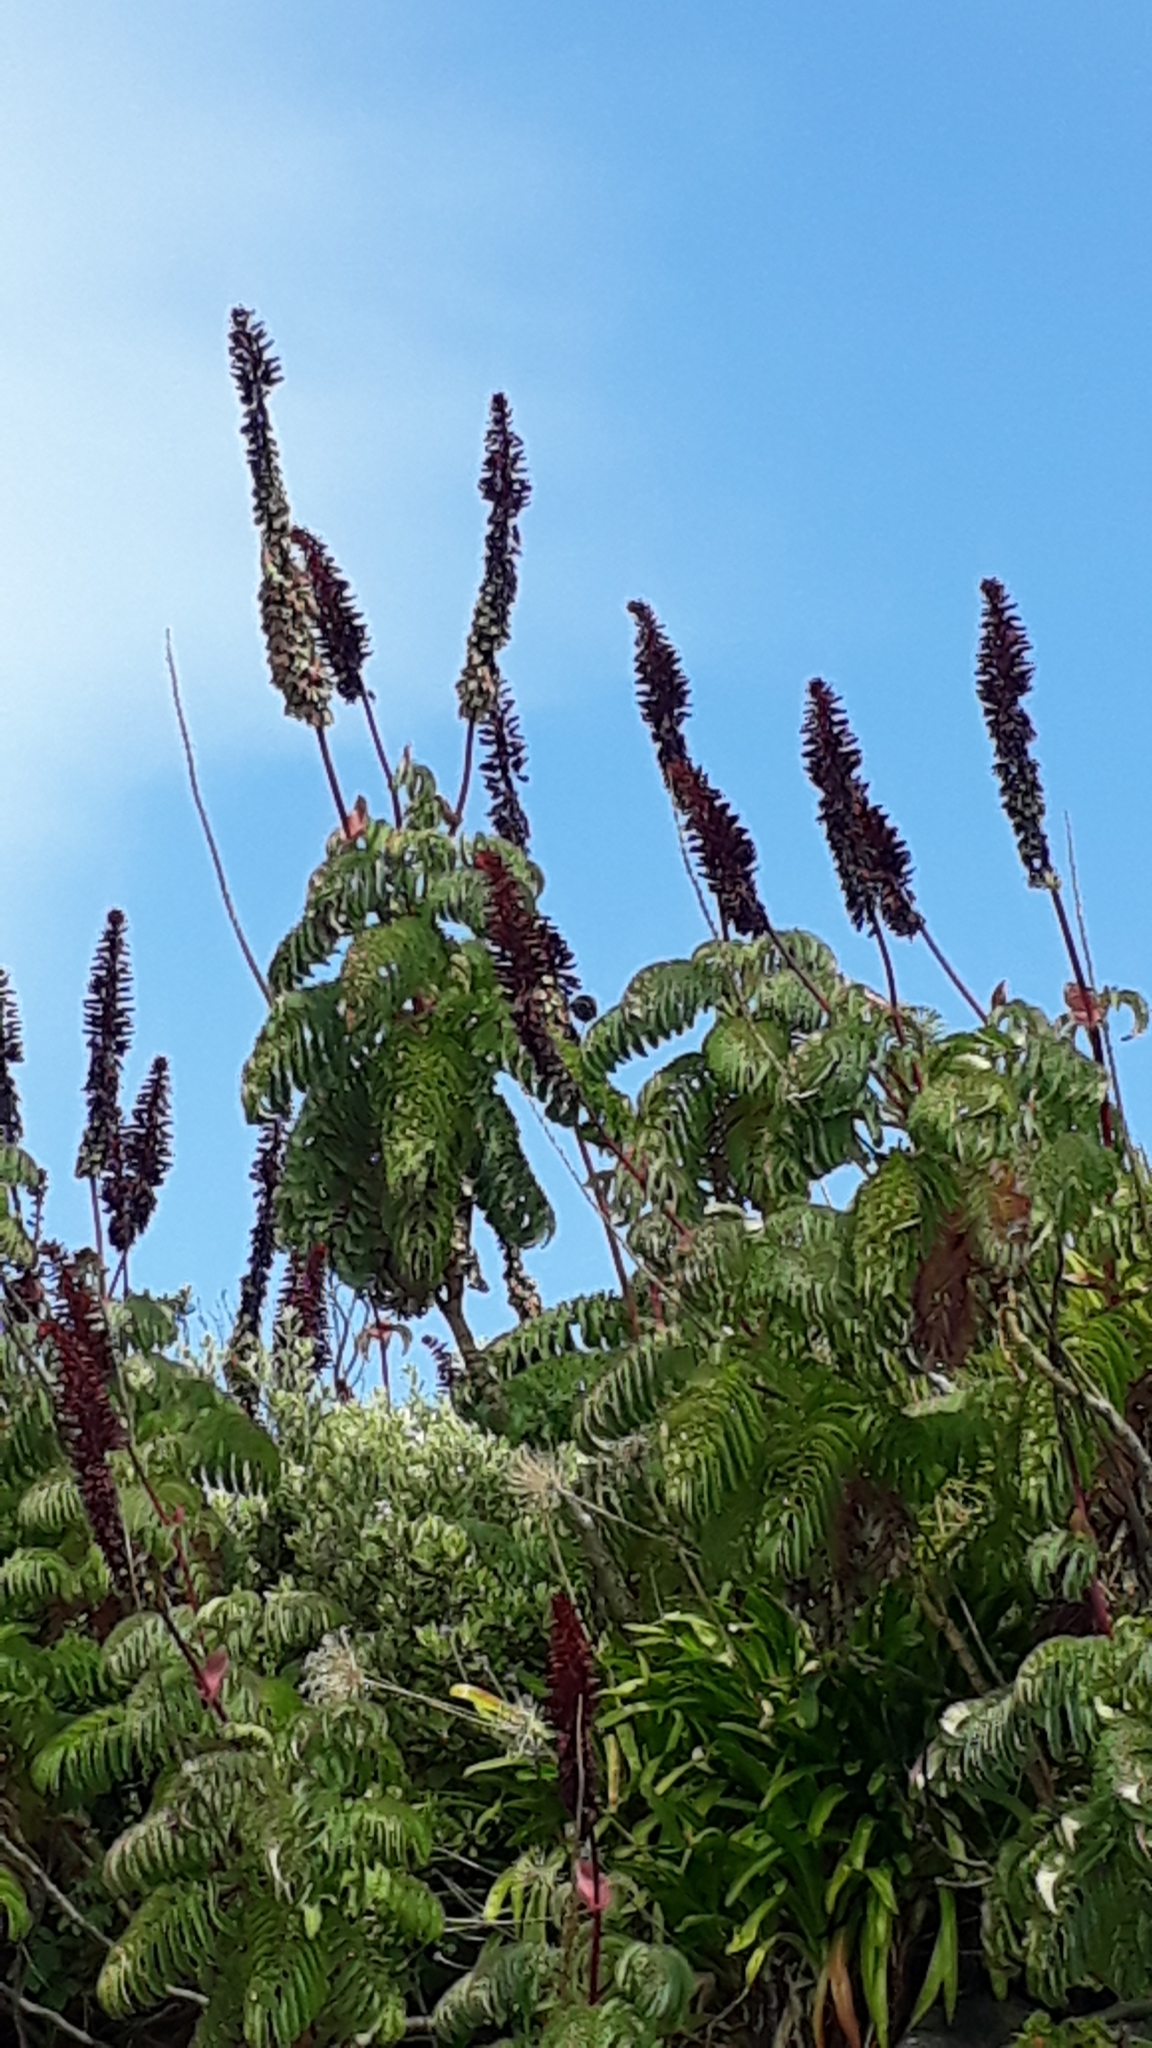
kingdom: Plantae
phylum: Tracheophyta
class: Magnoliopsida
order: Geraniales
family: Melianthaceae
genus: Melianthus
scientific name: Melianthus major
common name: Honey-flower
